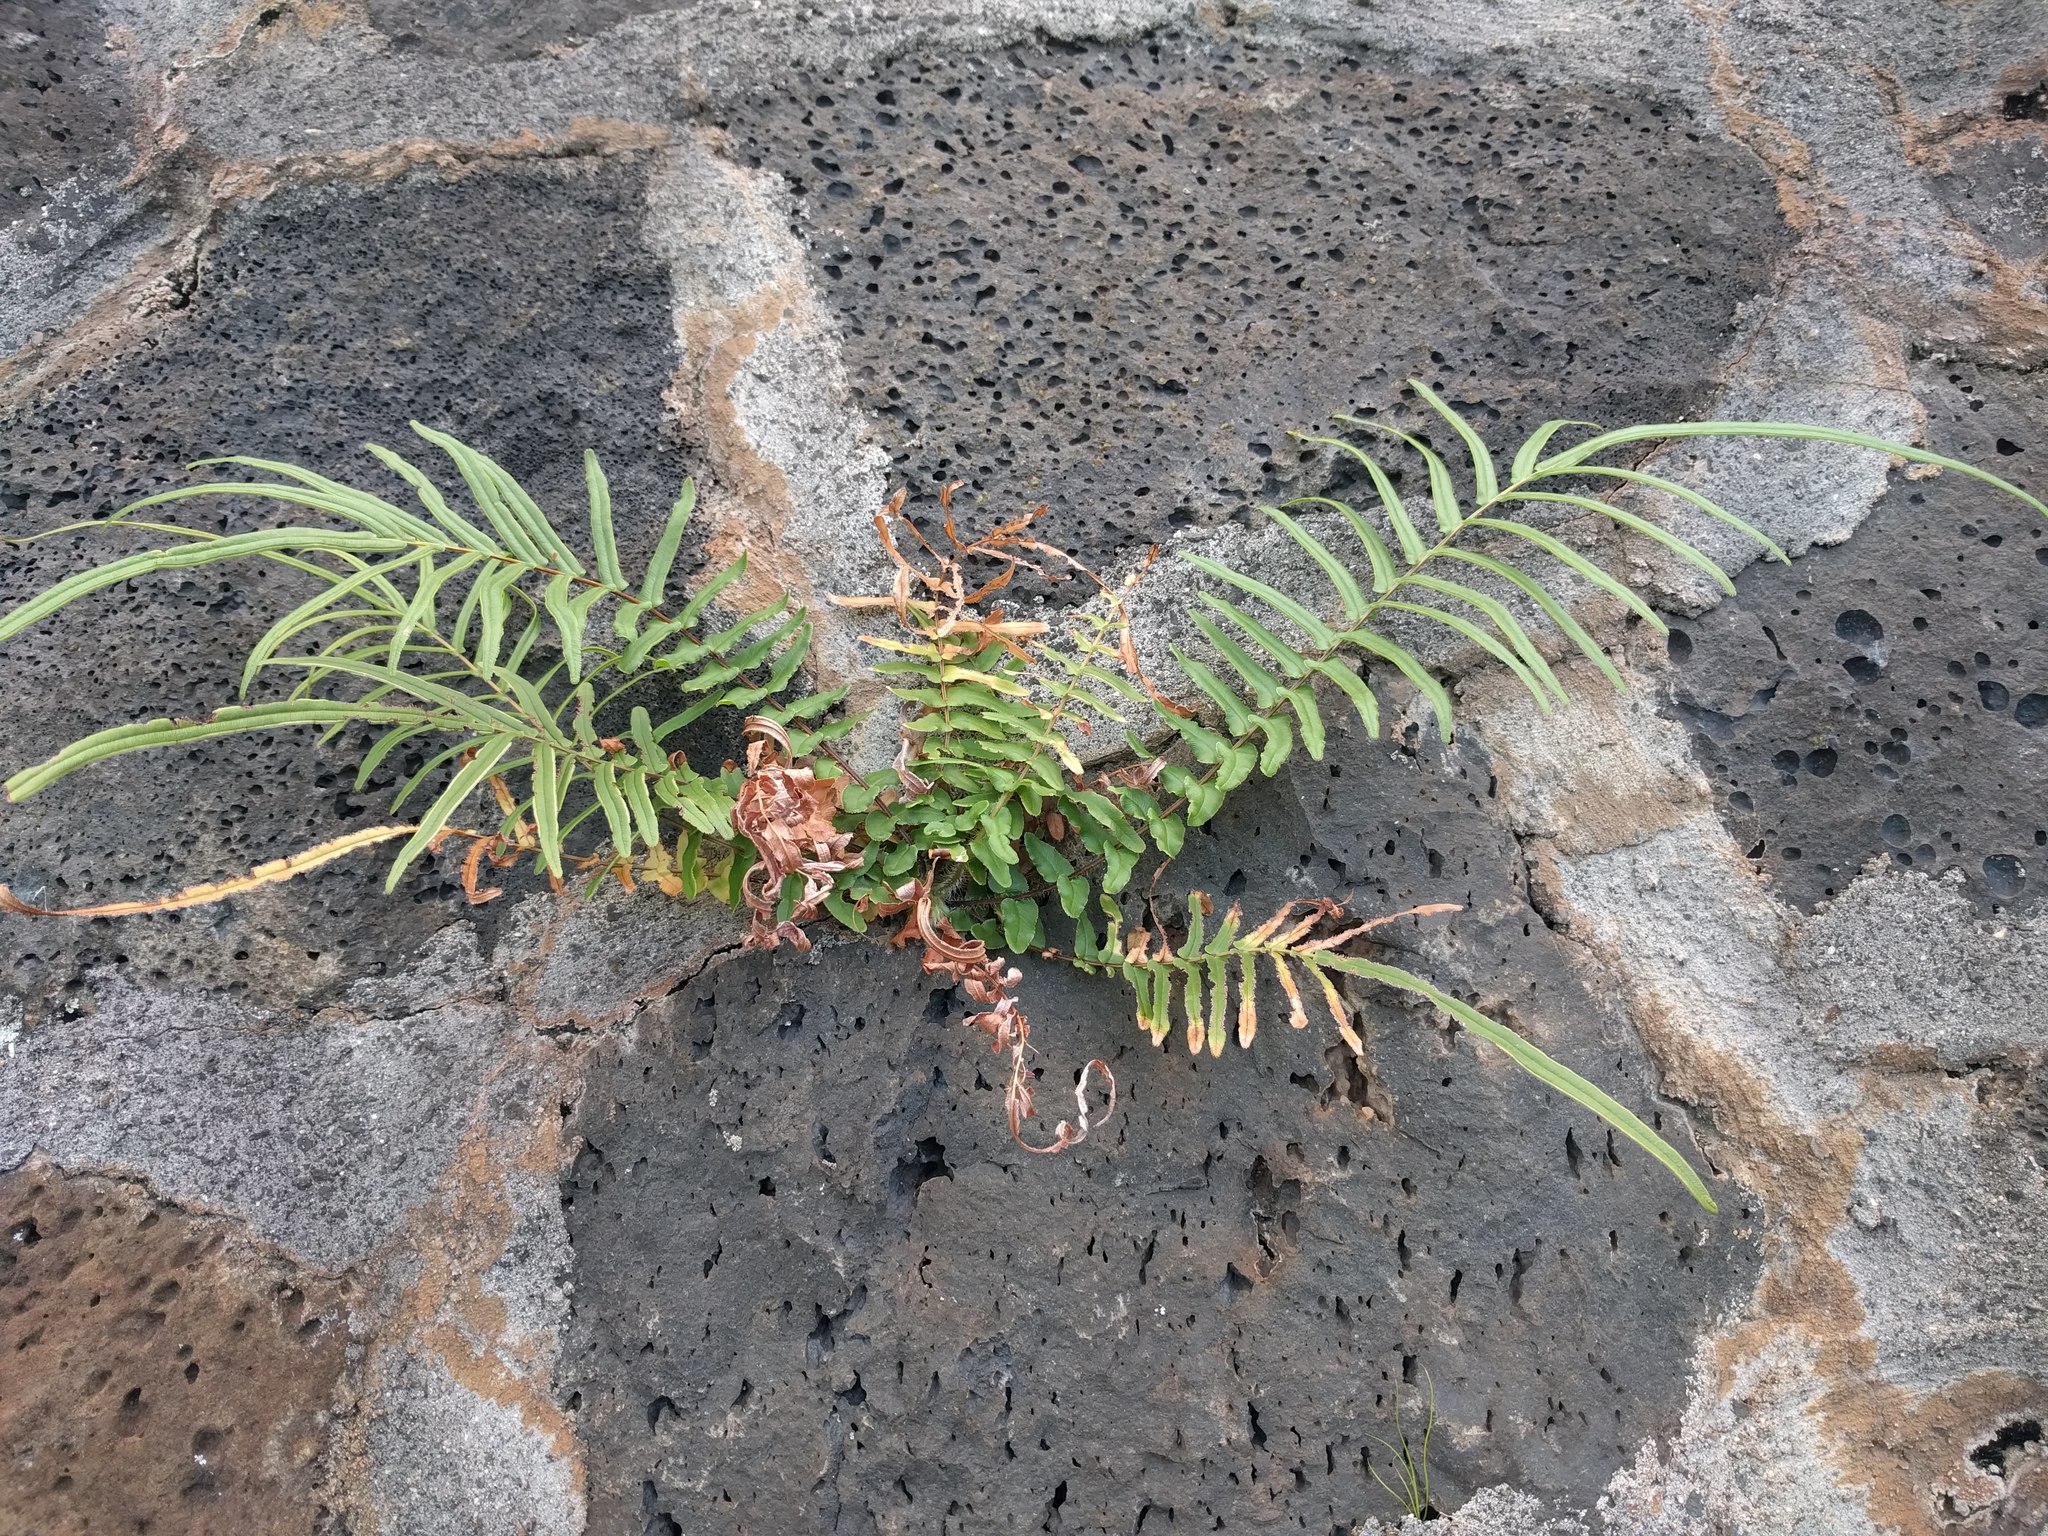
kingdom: Plantae
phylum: Tracheophyta
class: Polypodiopsida
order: Polypodiales
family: Pteridaceae
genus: Pteris
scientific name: Pteris vittata
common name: Ladder brake
